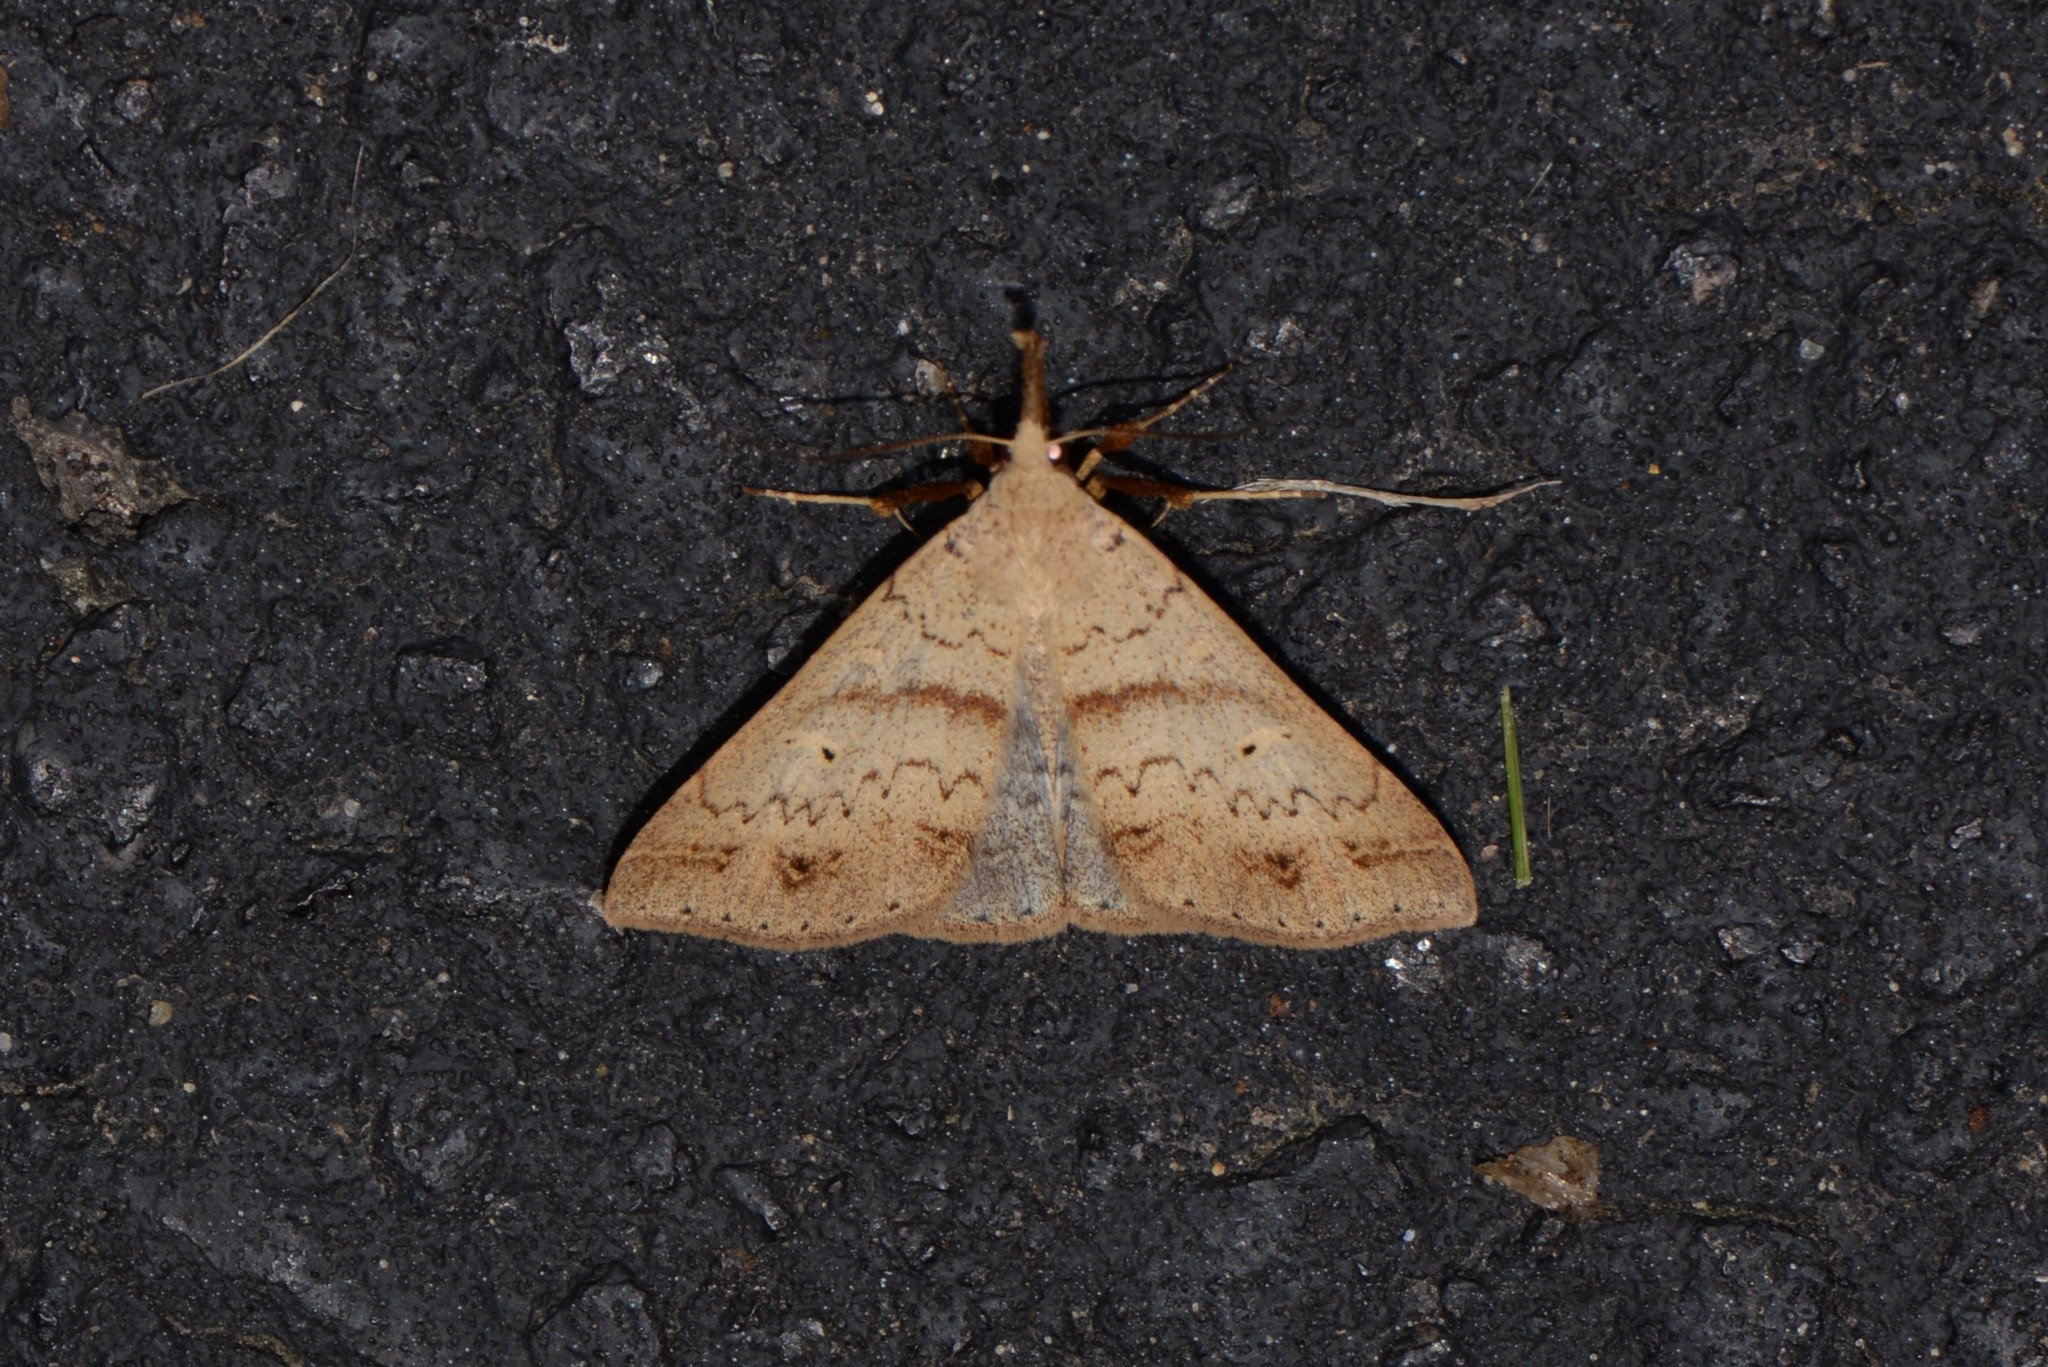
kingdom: Animalia
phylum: Arthropoda
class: Insecta
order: Lepidoptera
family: Erebidae
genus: Renia
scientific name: Renia discoloralis
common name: Discolored renia moth
